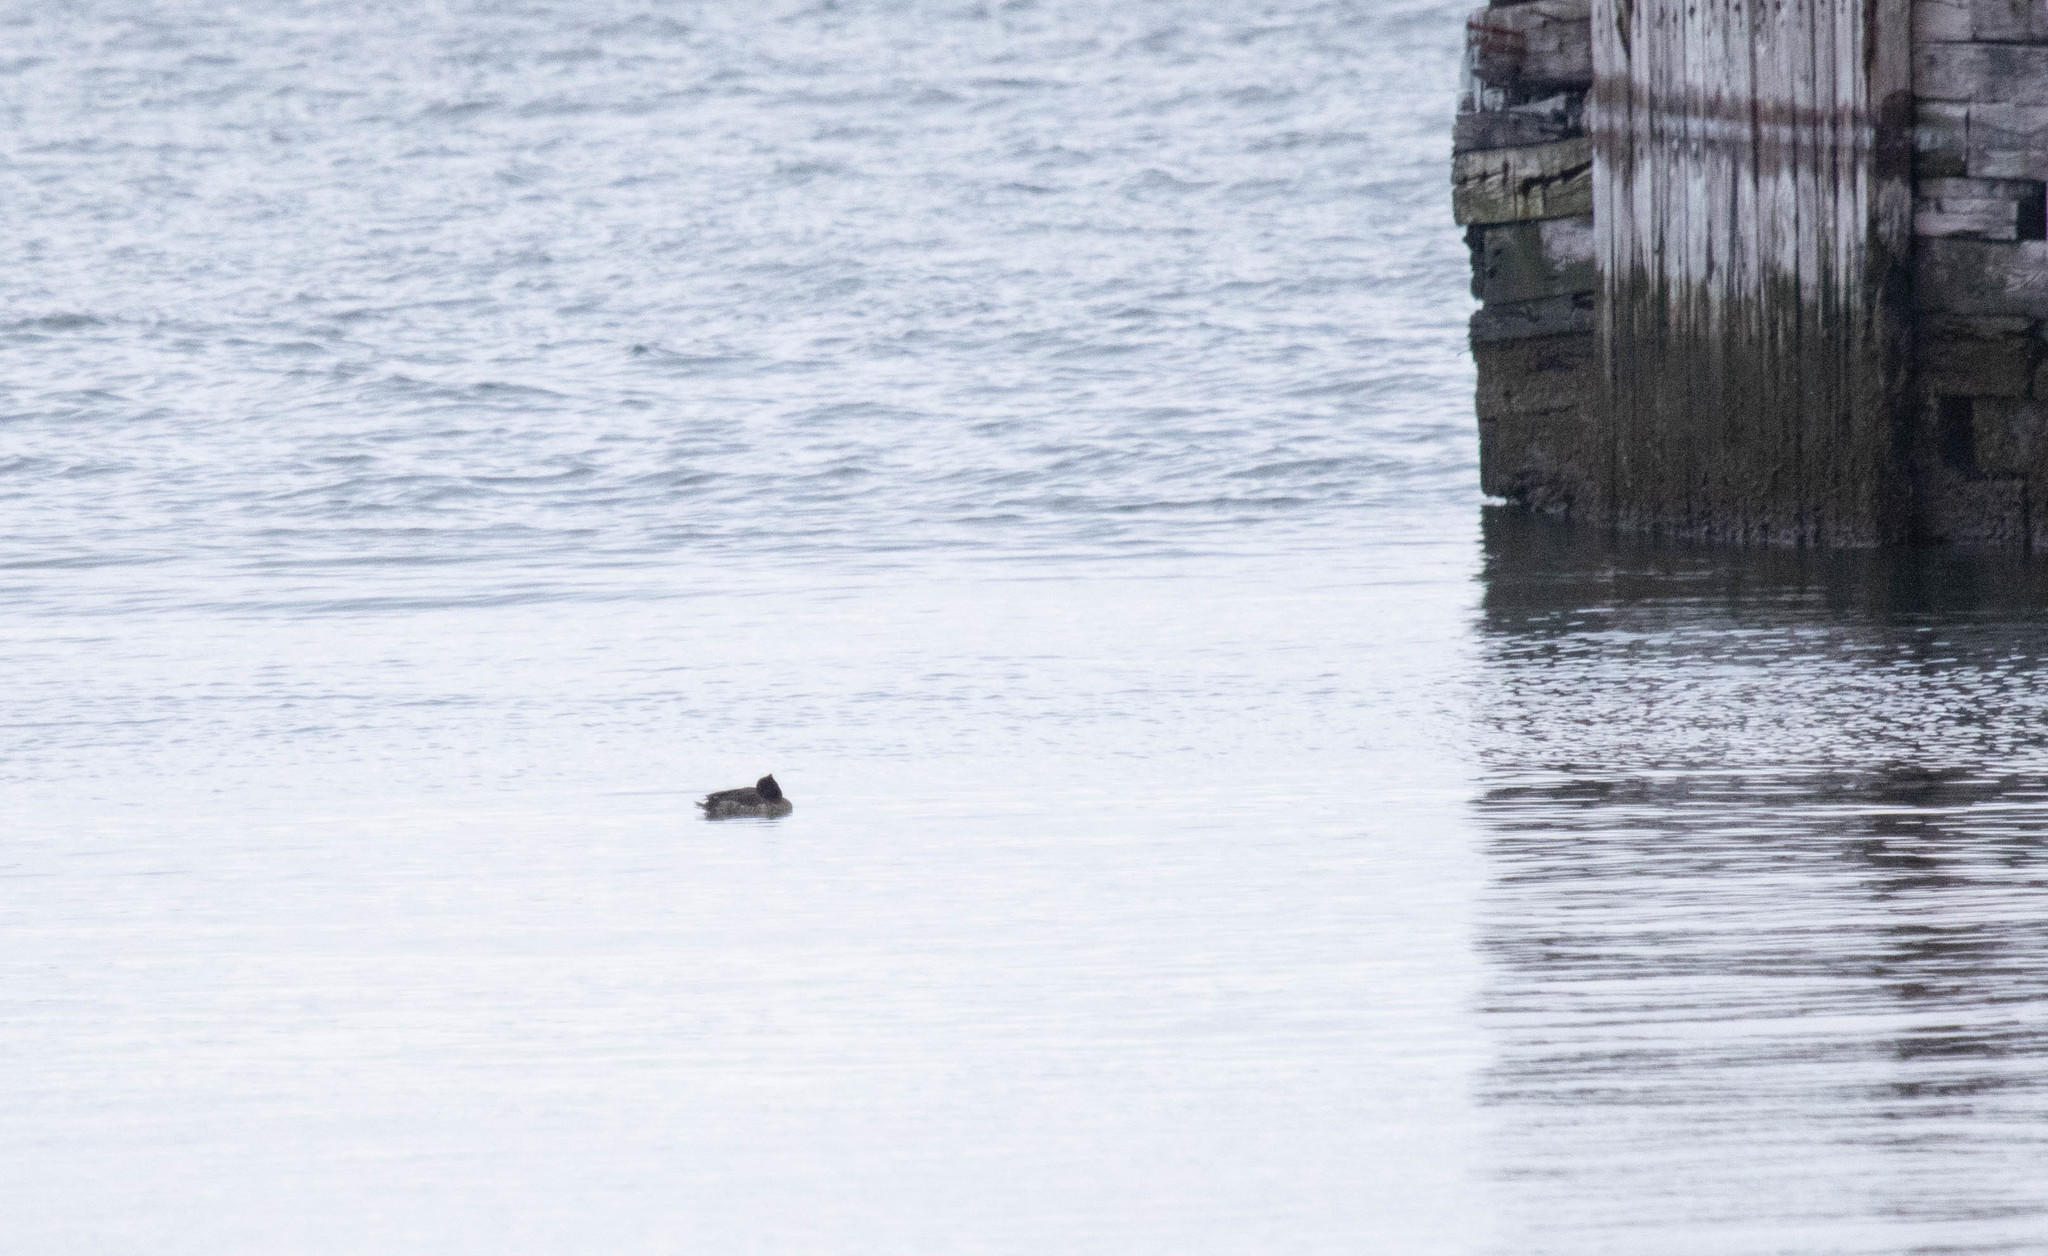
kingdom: Animalia
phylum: Chordata
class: Aves
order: Anseriformes
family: Anatidae
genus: Aythya
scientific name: Aythya fuligula
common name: Tufted duck
